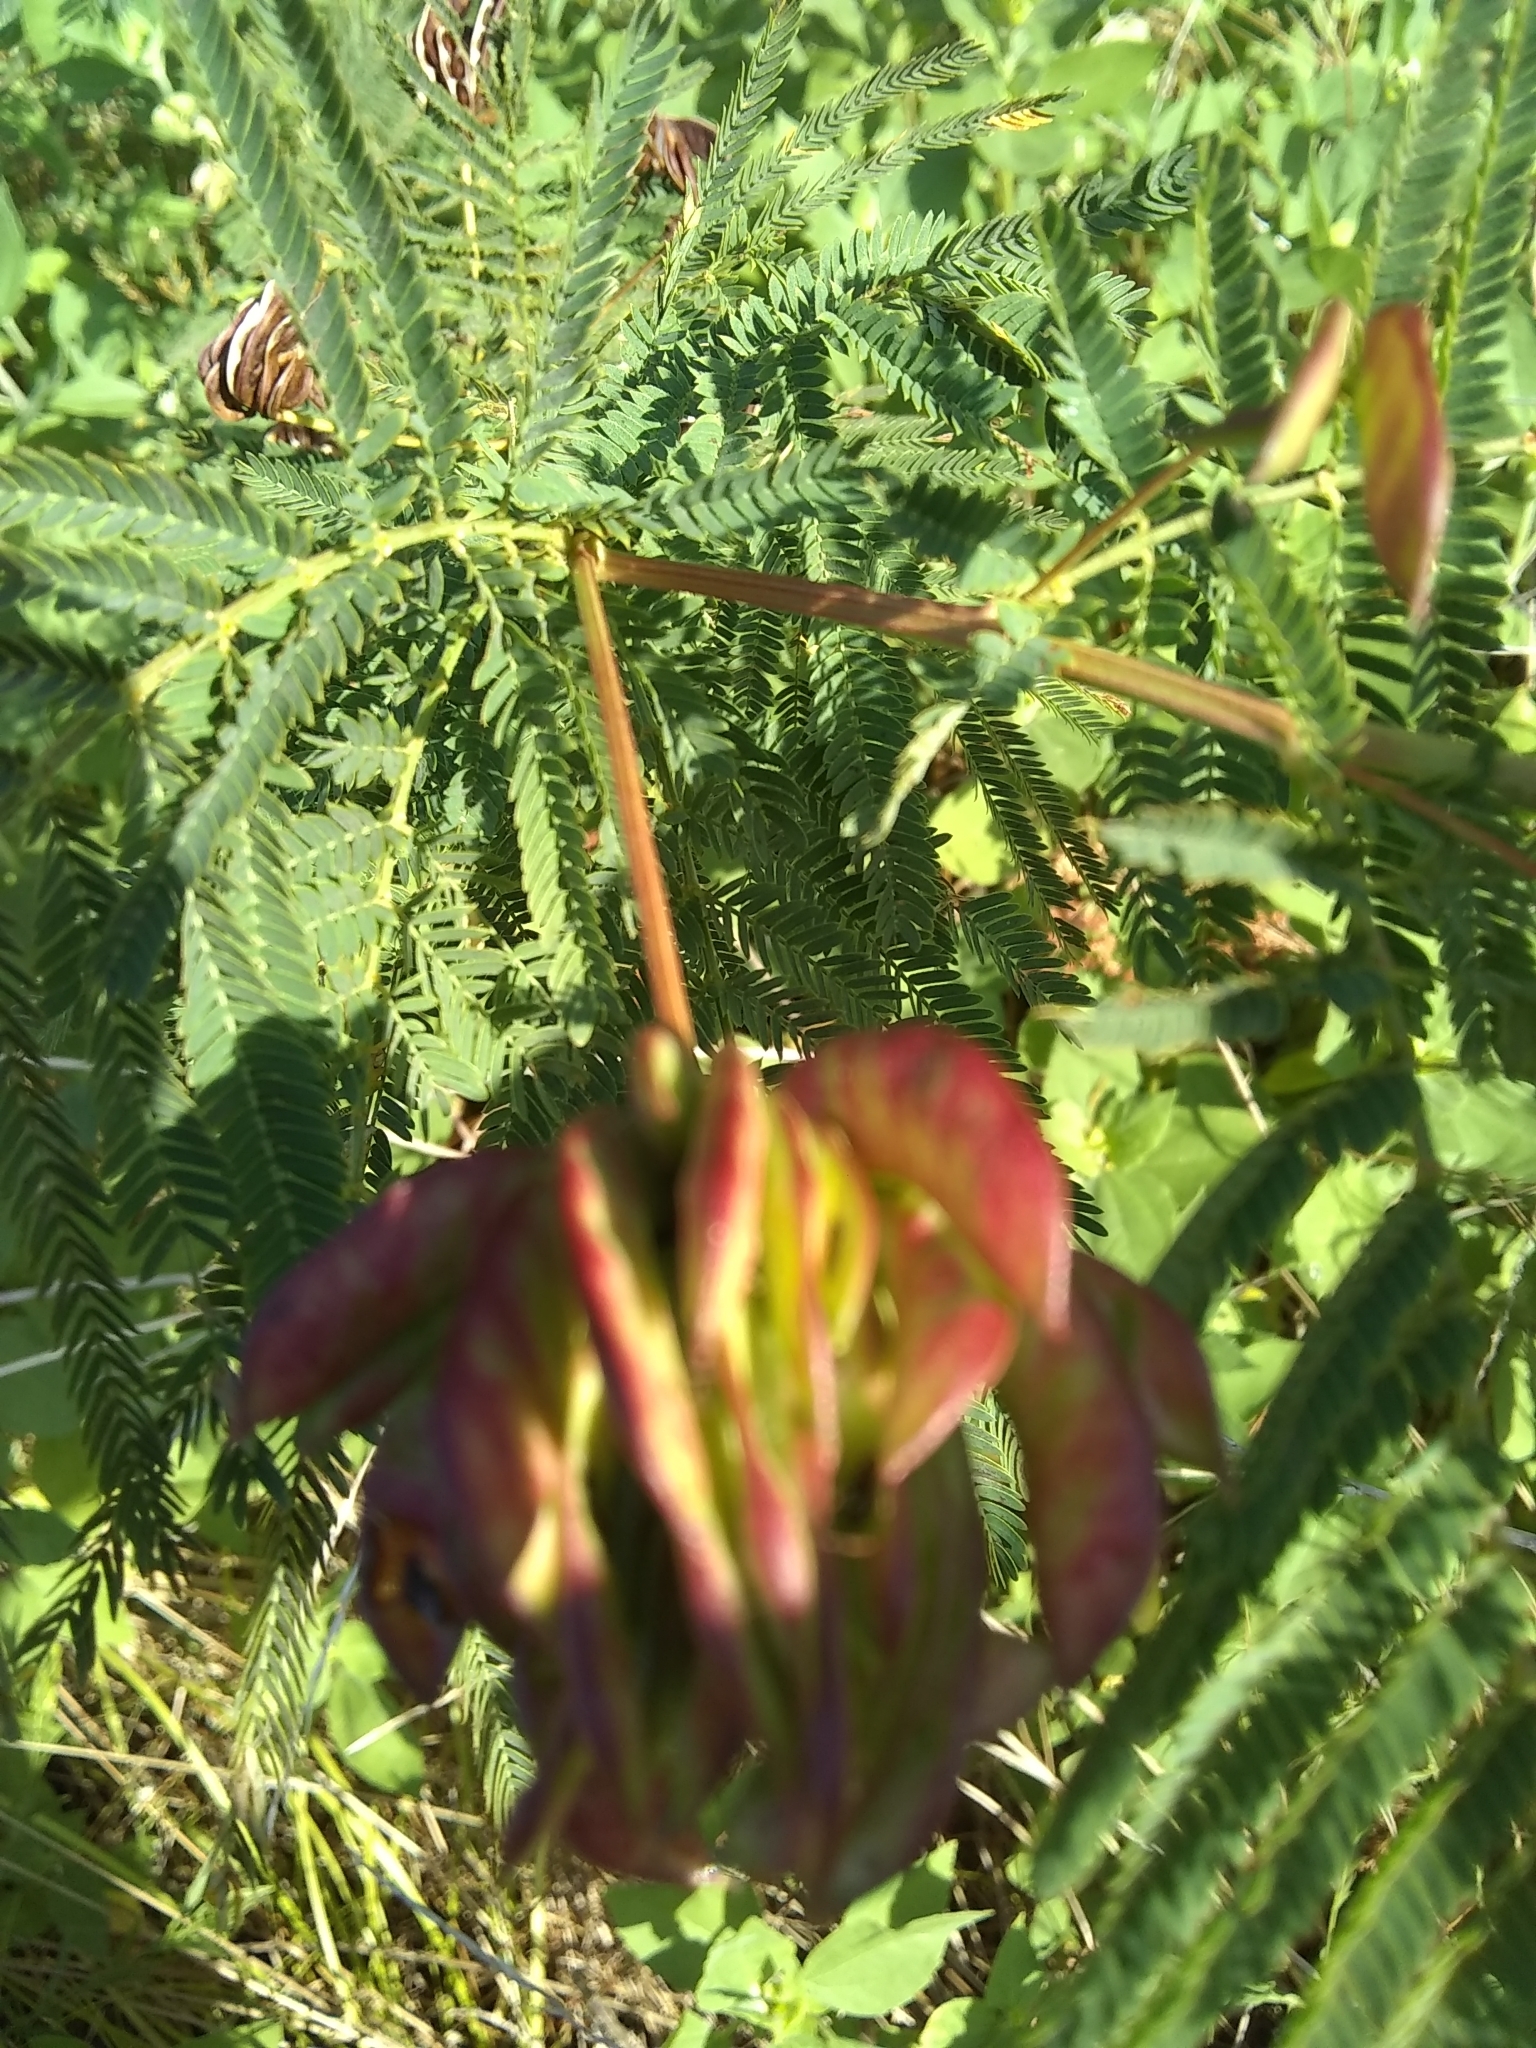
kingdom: Plantae
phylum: Tracheophyta
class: Magnoliopsida
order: Fabales
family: Fabaceae
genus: Desmanthus
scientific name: Desmanthus illinoensis
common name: Illinois bundle-flower
